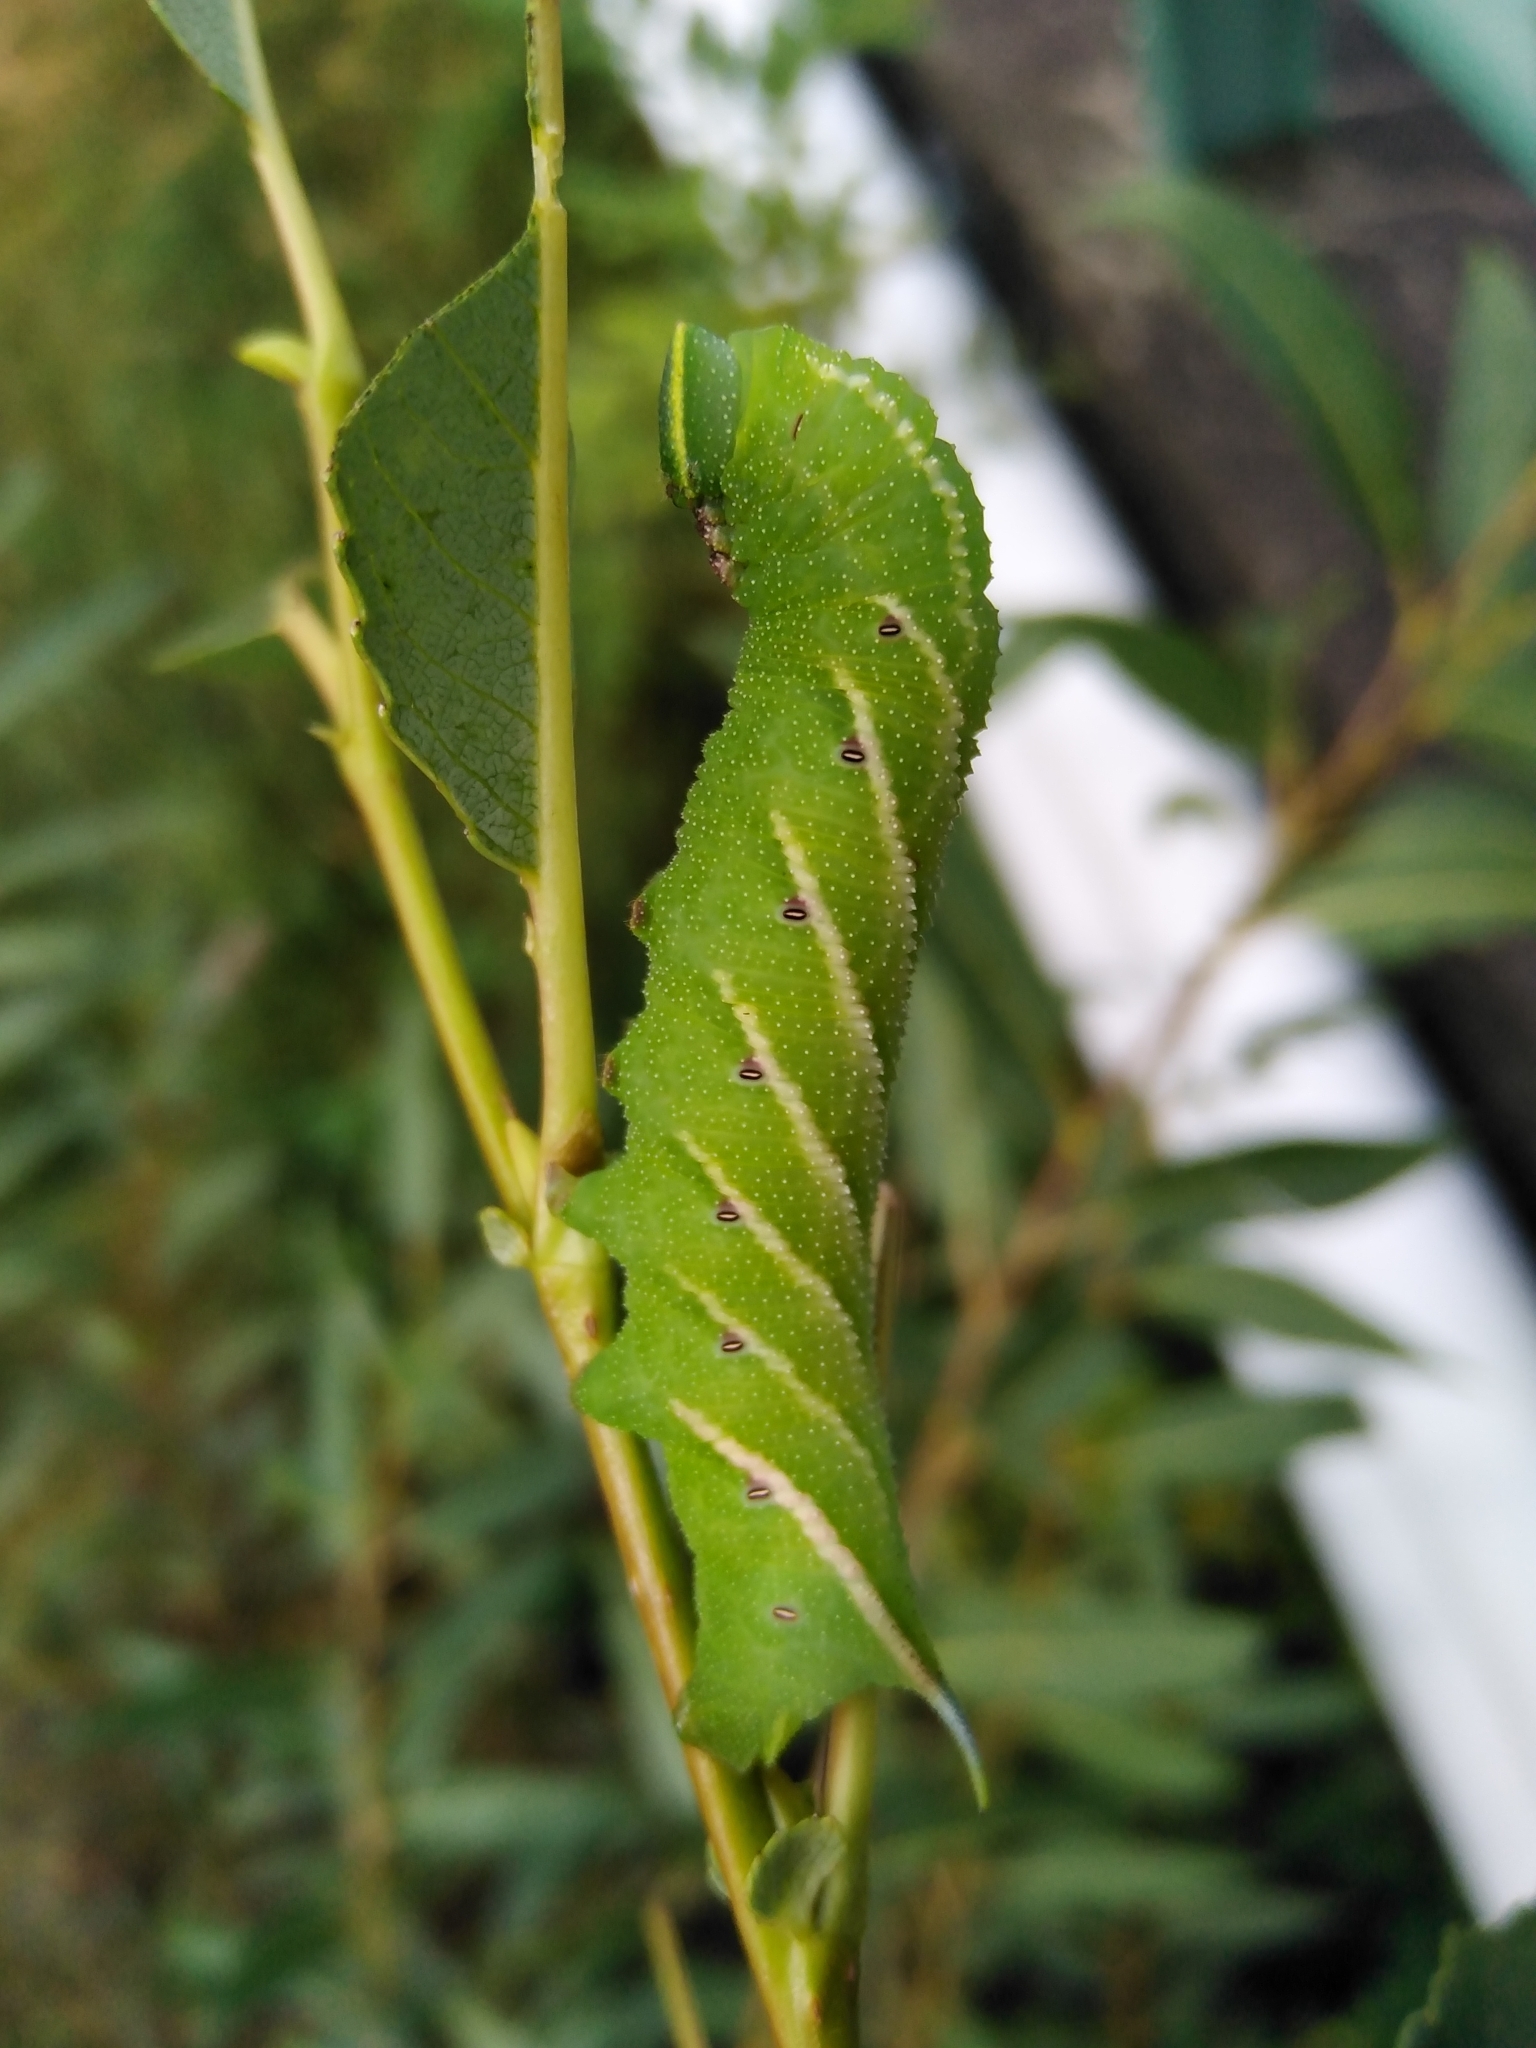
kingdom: Animalia
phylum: Arthropoda
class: Insecta
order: Lepidoptera
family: Sphingidae
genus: Smerinthus
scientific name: Smerinthus ocellata
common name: Eyed hawk-moth
